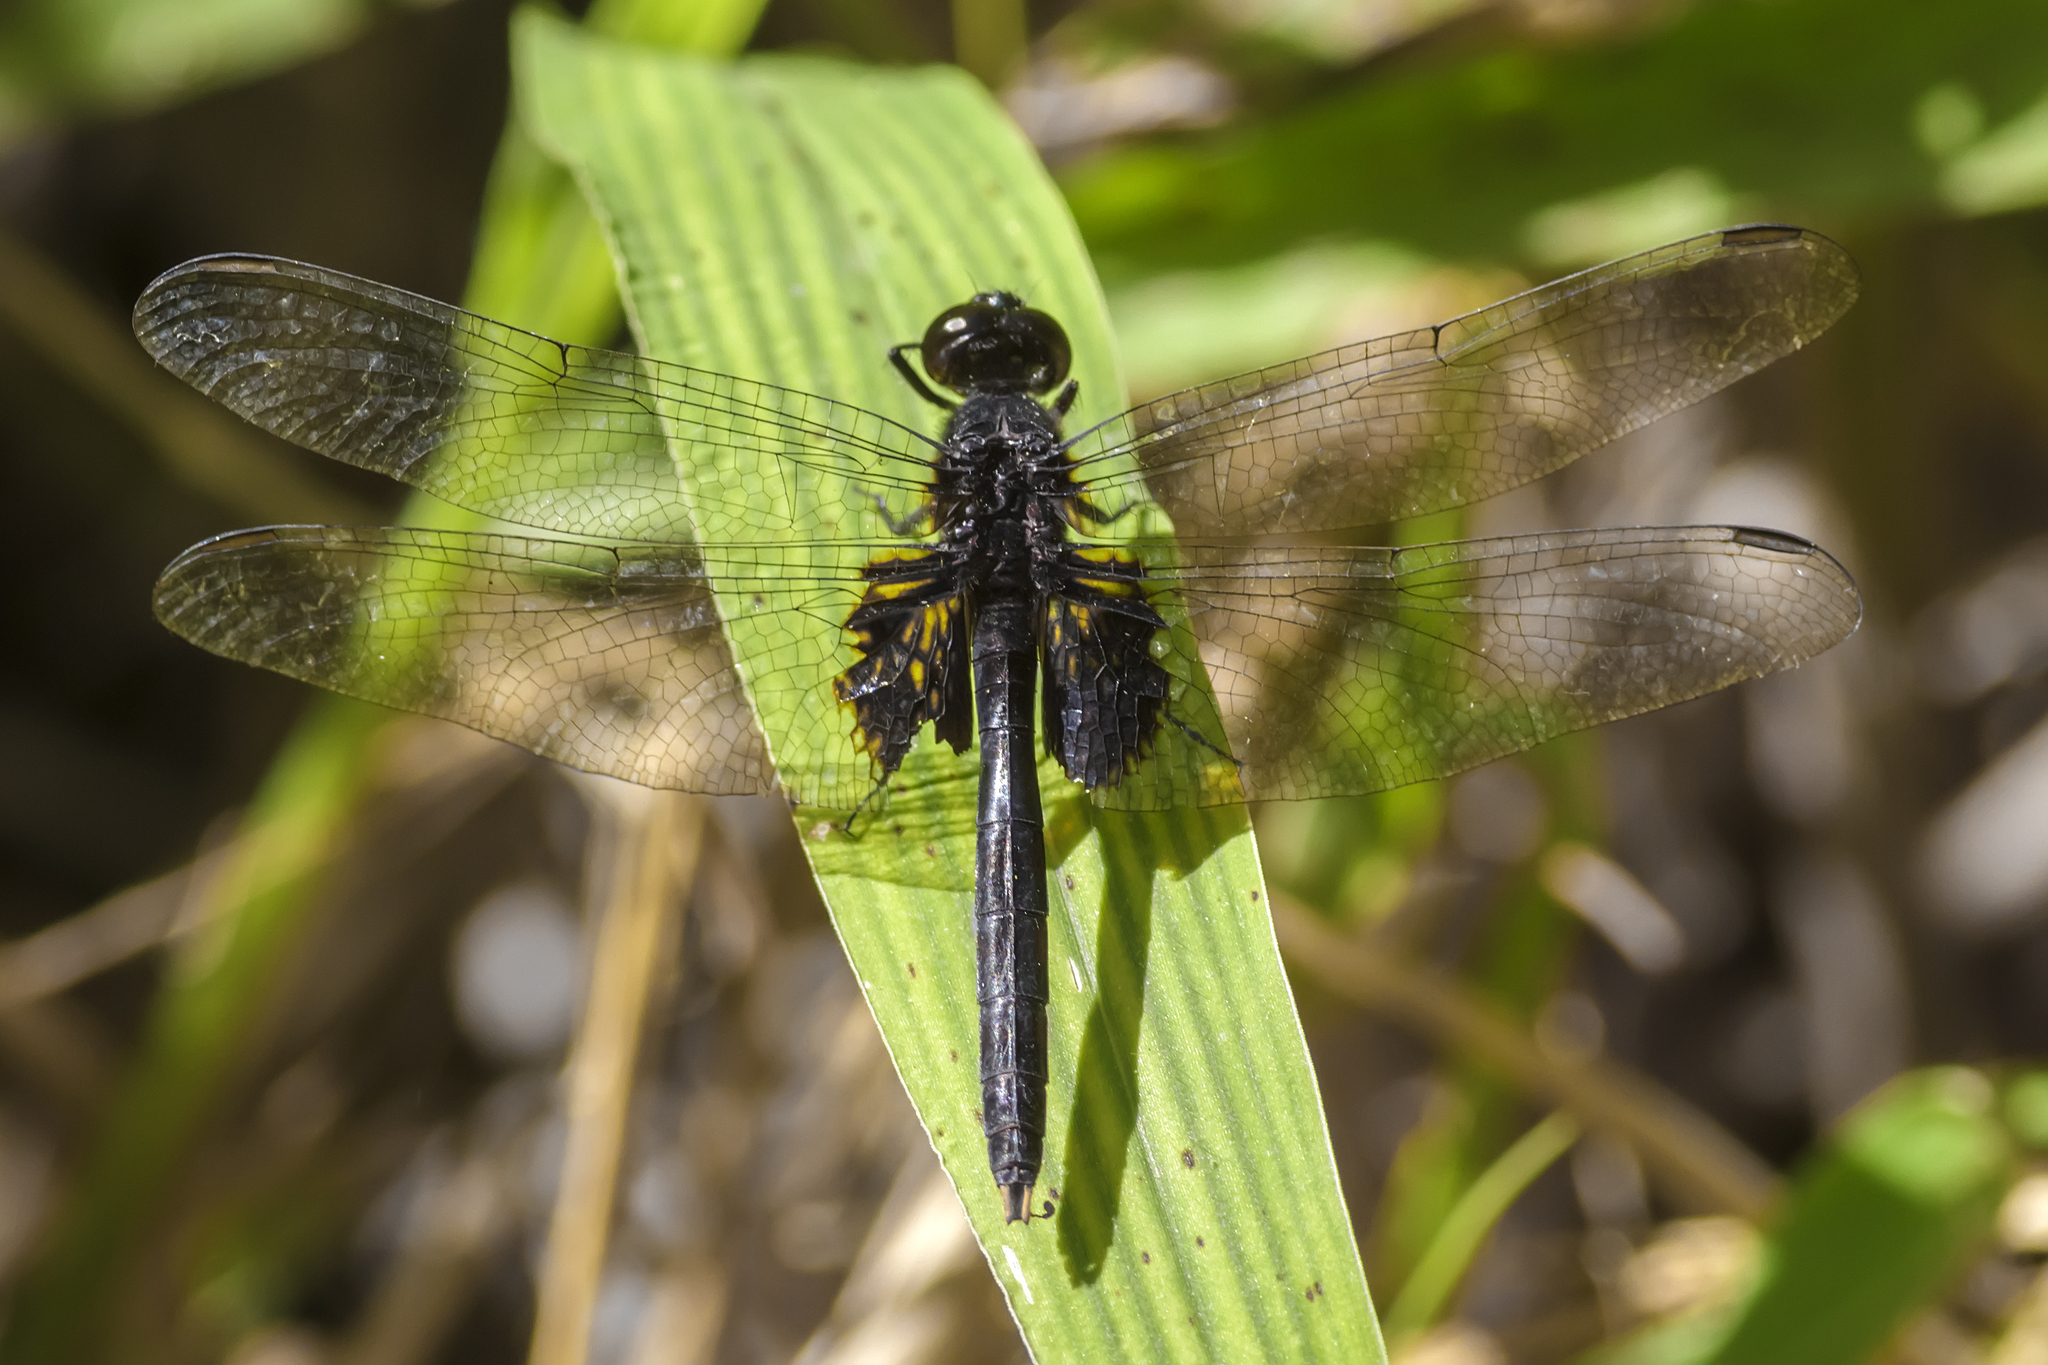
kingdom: Animalia
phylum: Arthropoda
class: Insecta
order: Odonata
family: Libellulidae
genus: Erythemis
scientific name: Erythemis attala
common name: Black pondhawk
